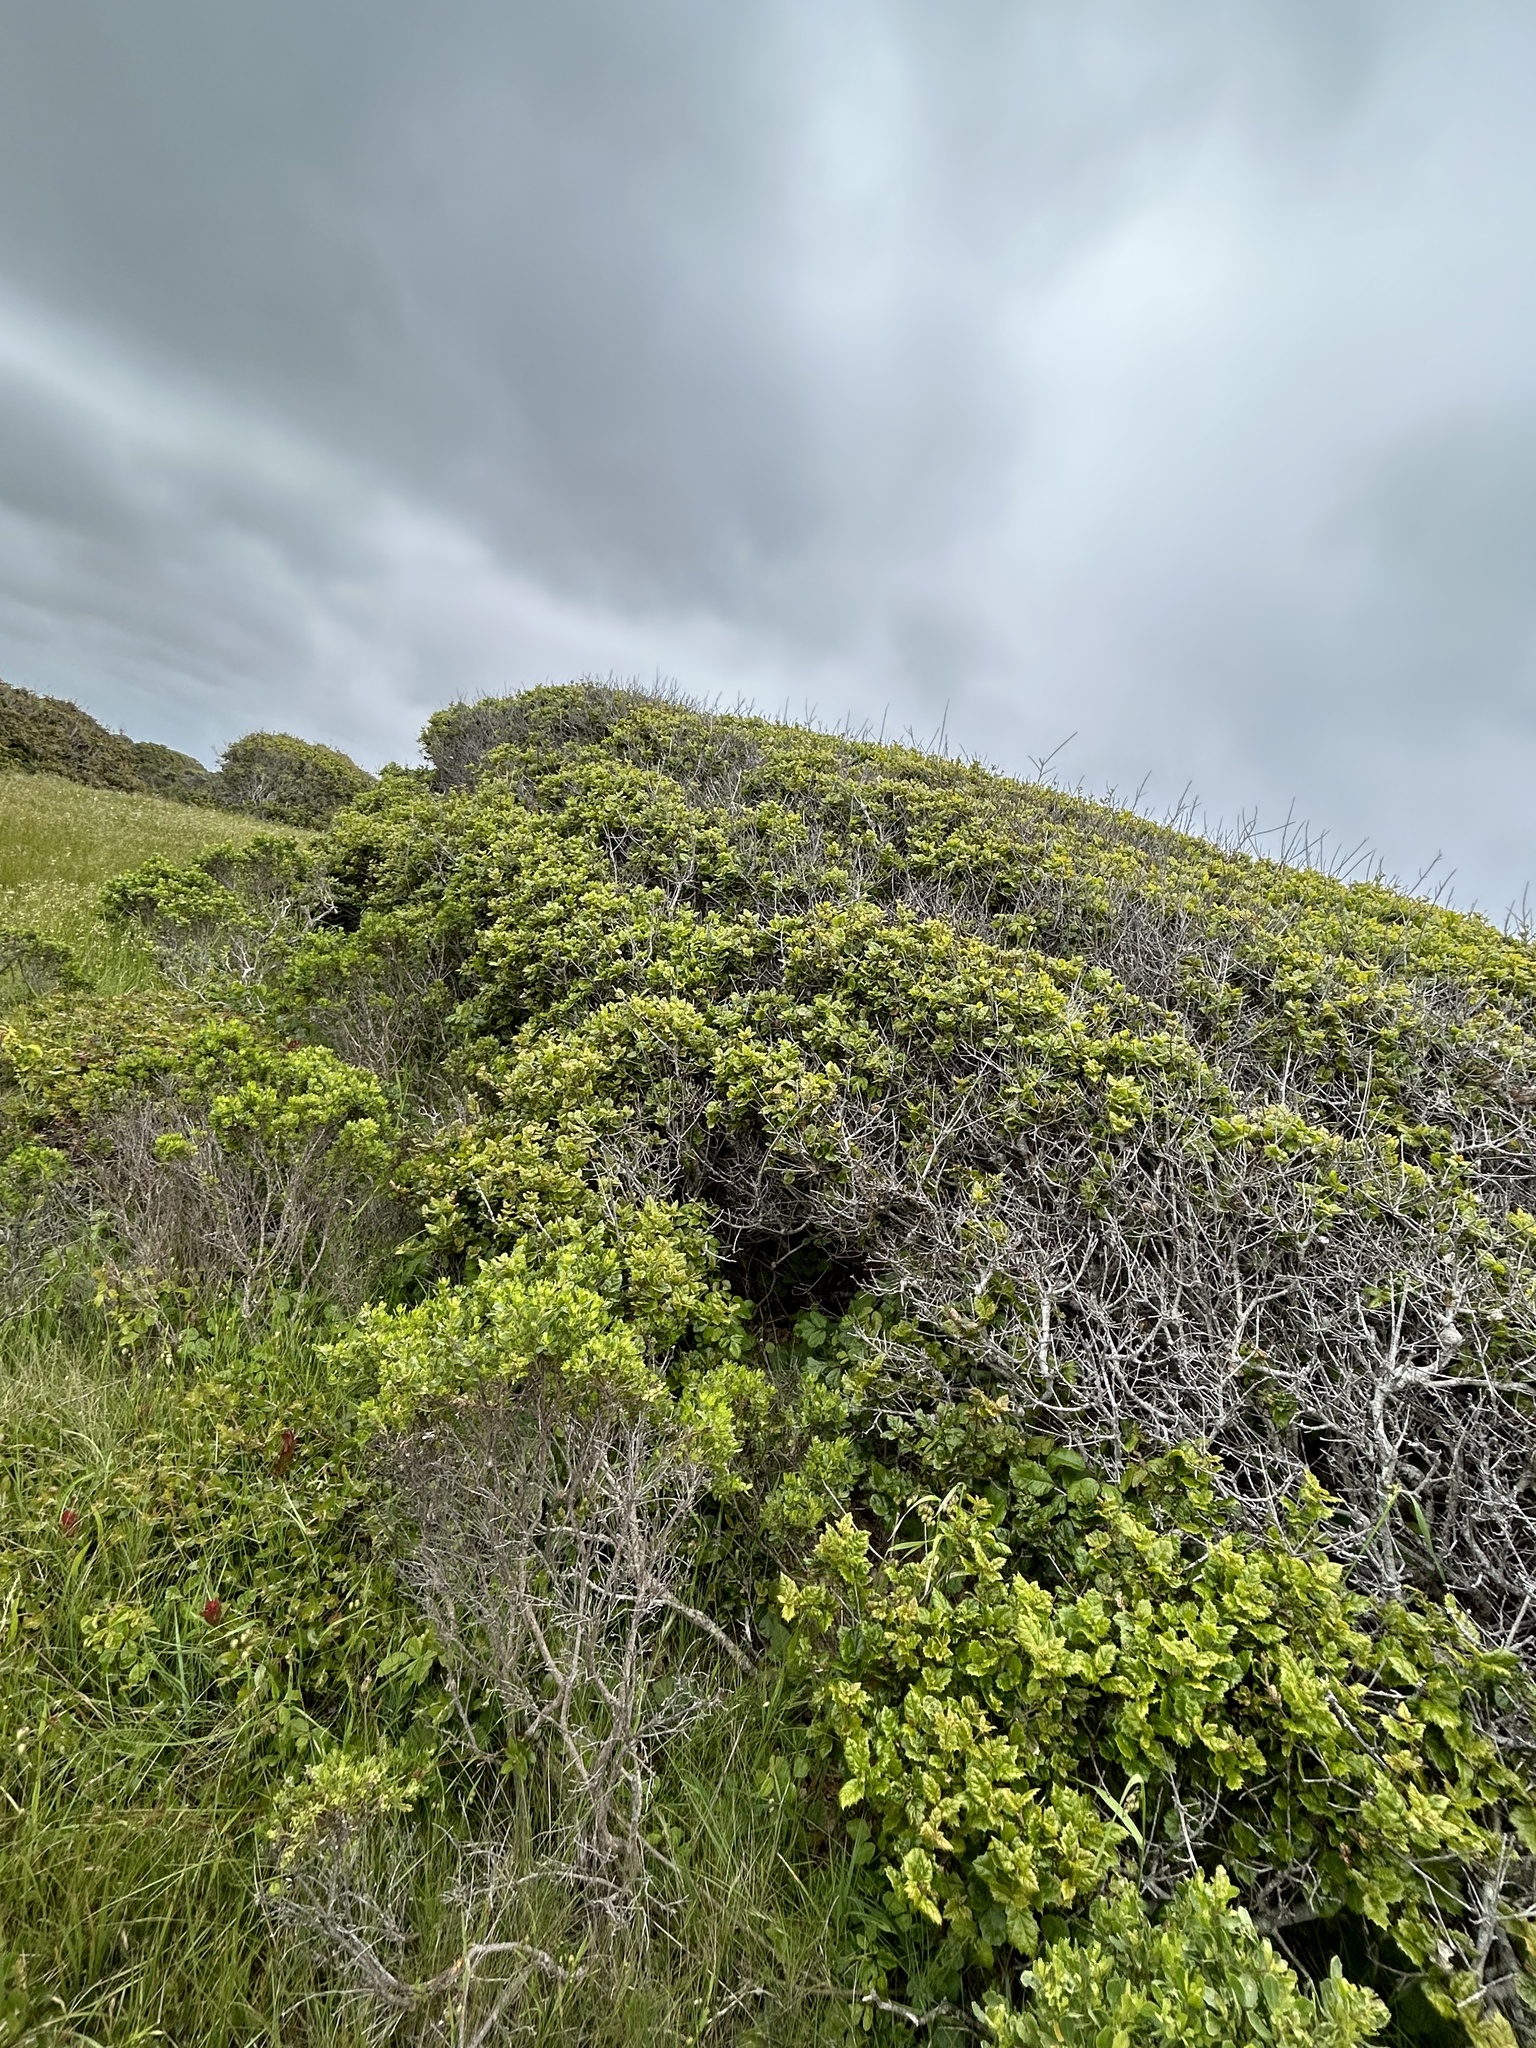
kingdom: Plantae
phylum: Tracheophyta
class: Magnoliopsida
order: Fagales
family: Fagaceae
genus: Quercus
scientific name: Quercus agrifolia
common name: California live oak
